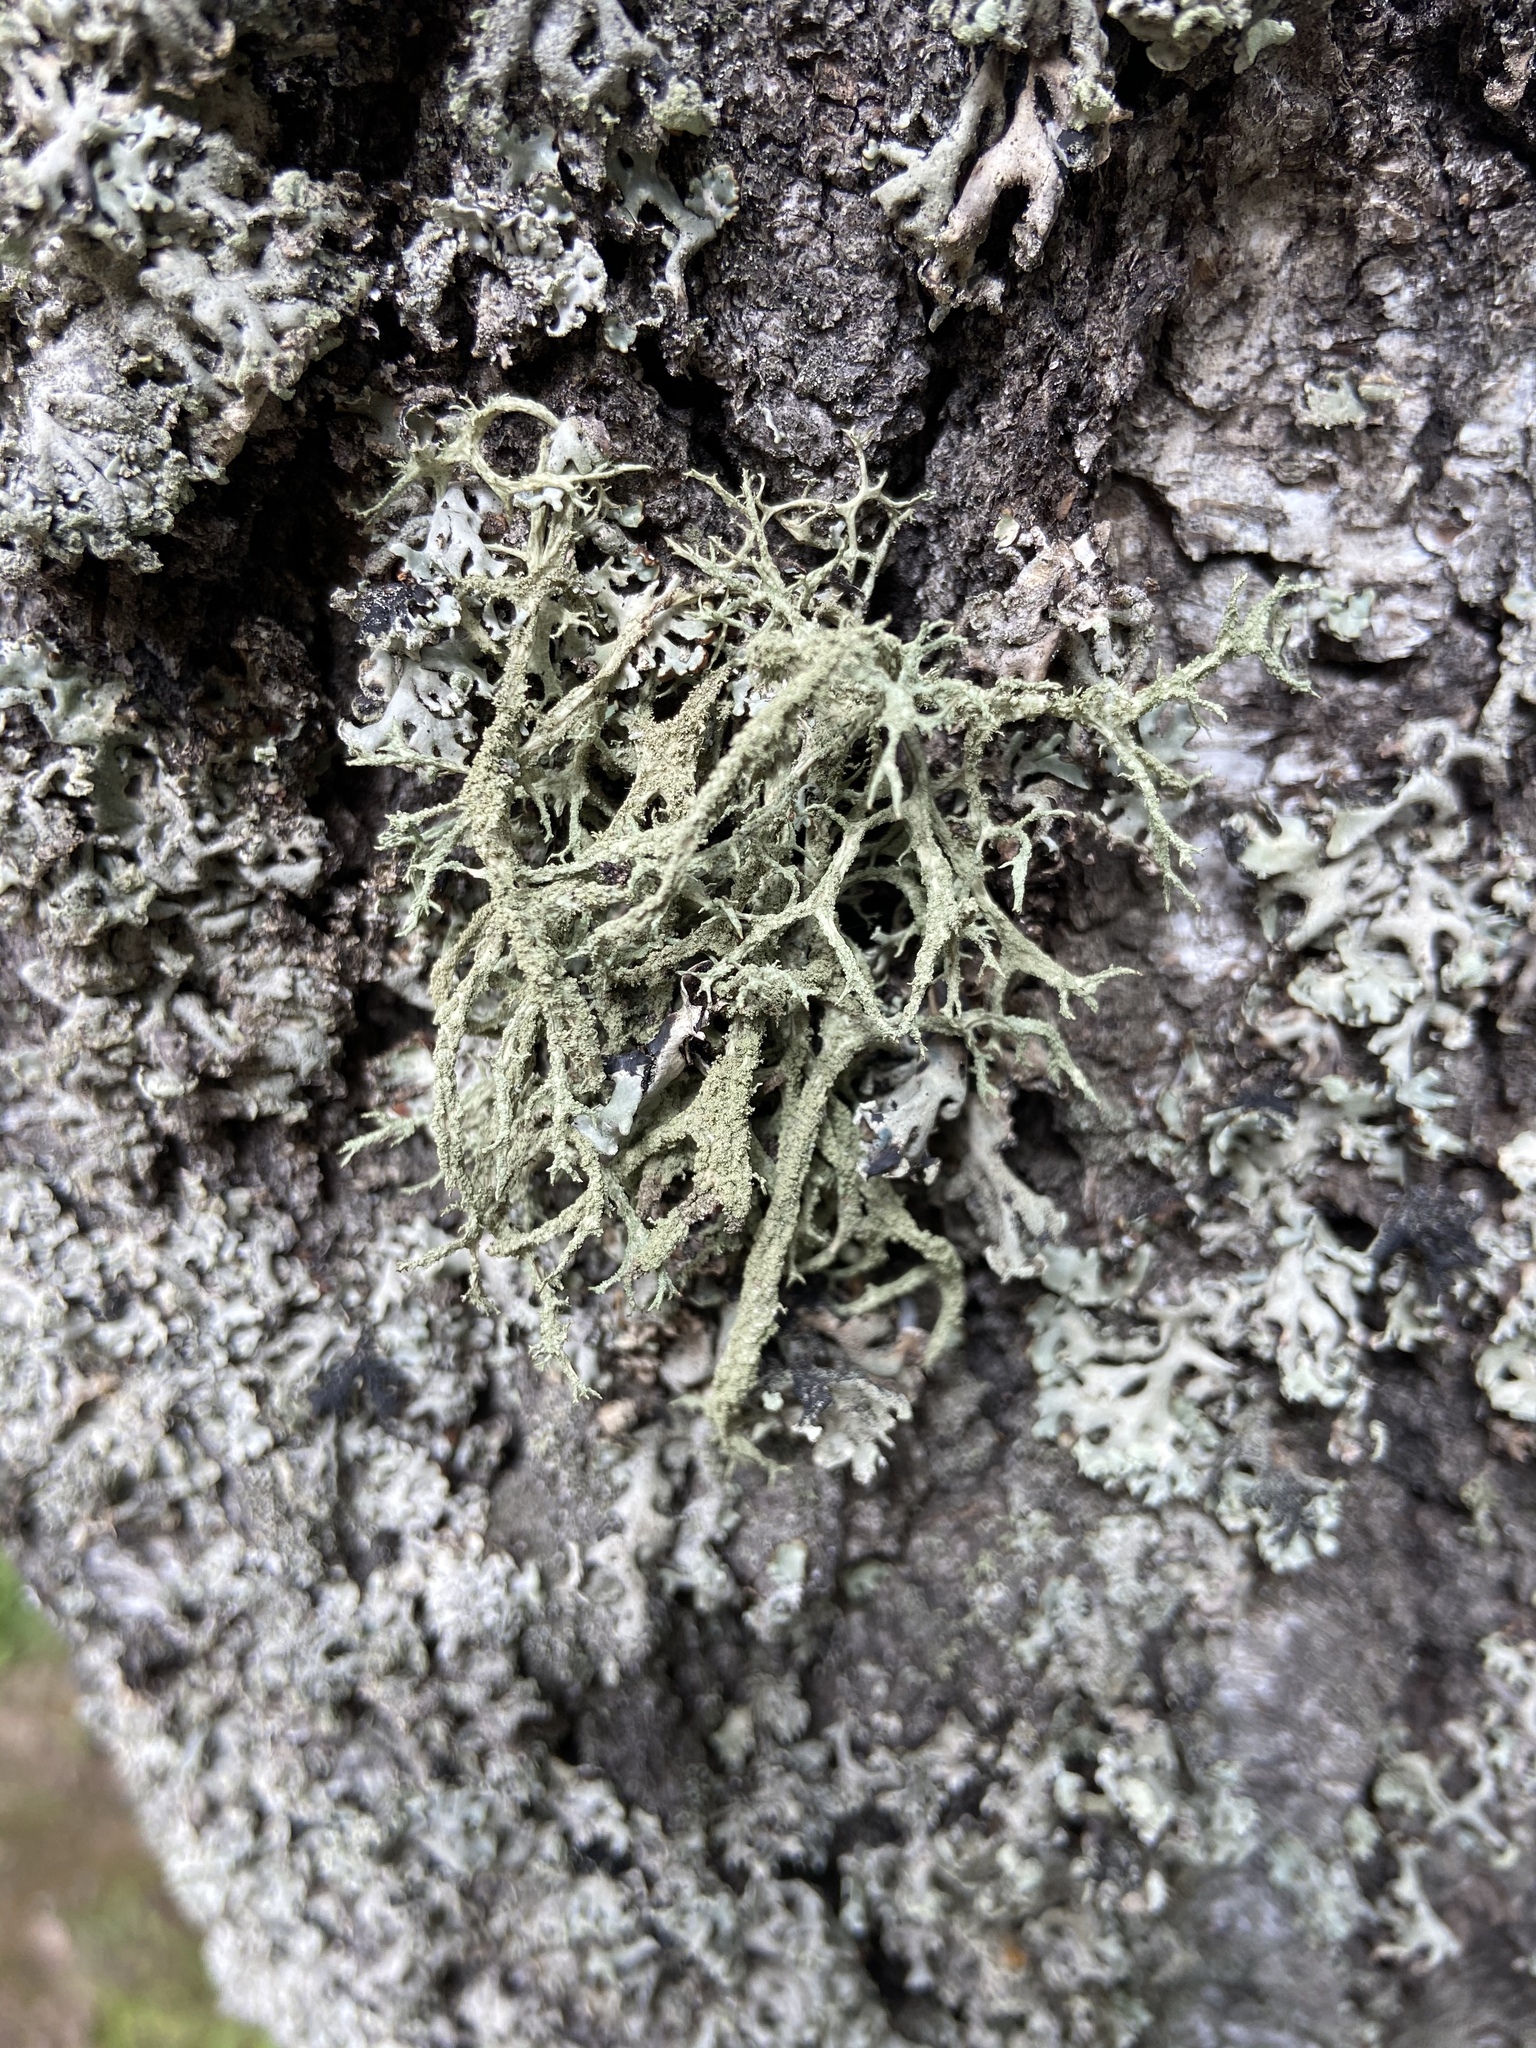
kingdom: Fungi
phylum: Ascomycota
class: Lecanoromycetes
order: Lecanorales
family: Parmeliaceae
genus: Evernia
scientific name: Evernia mesomorpha
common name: Boreal oak moss lichen
